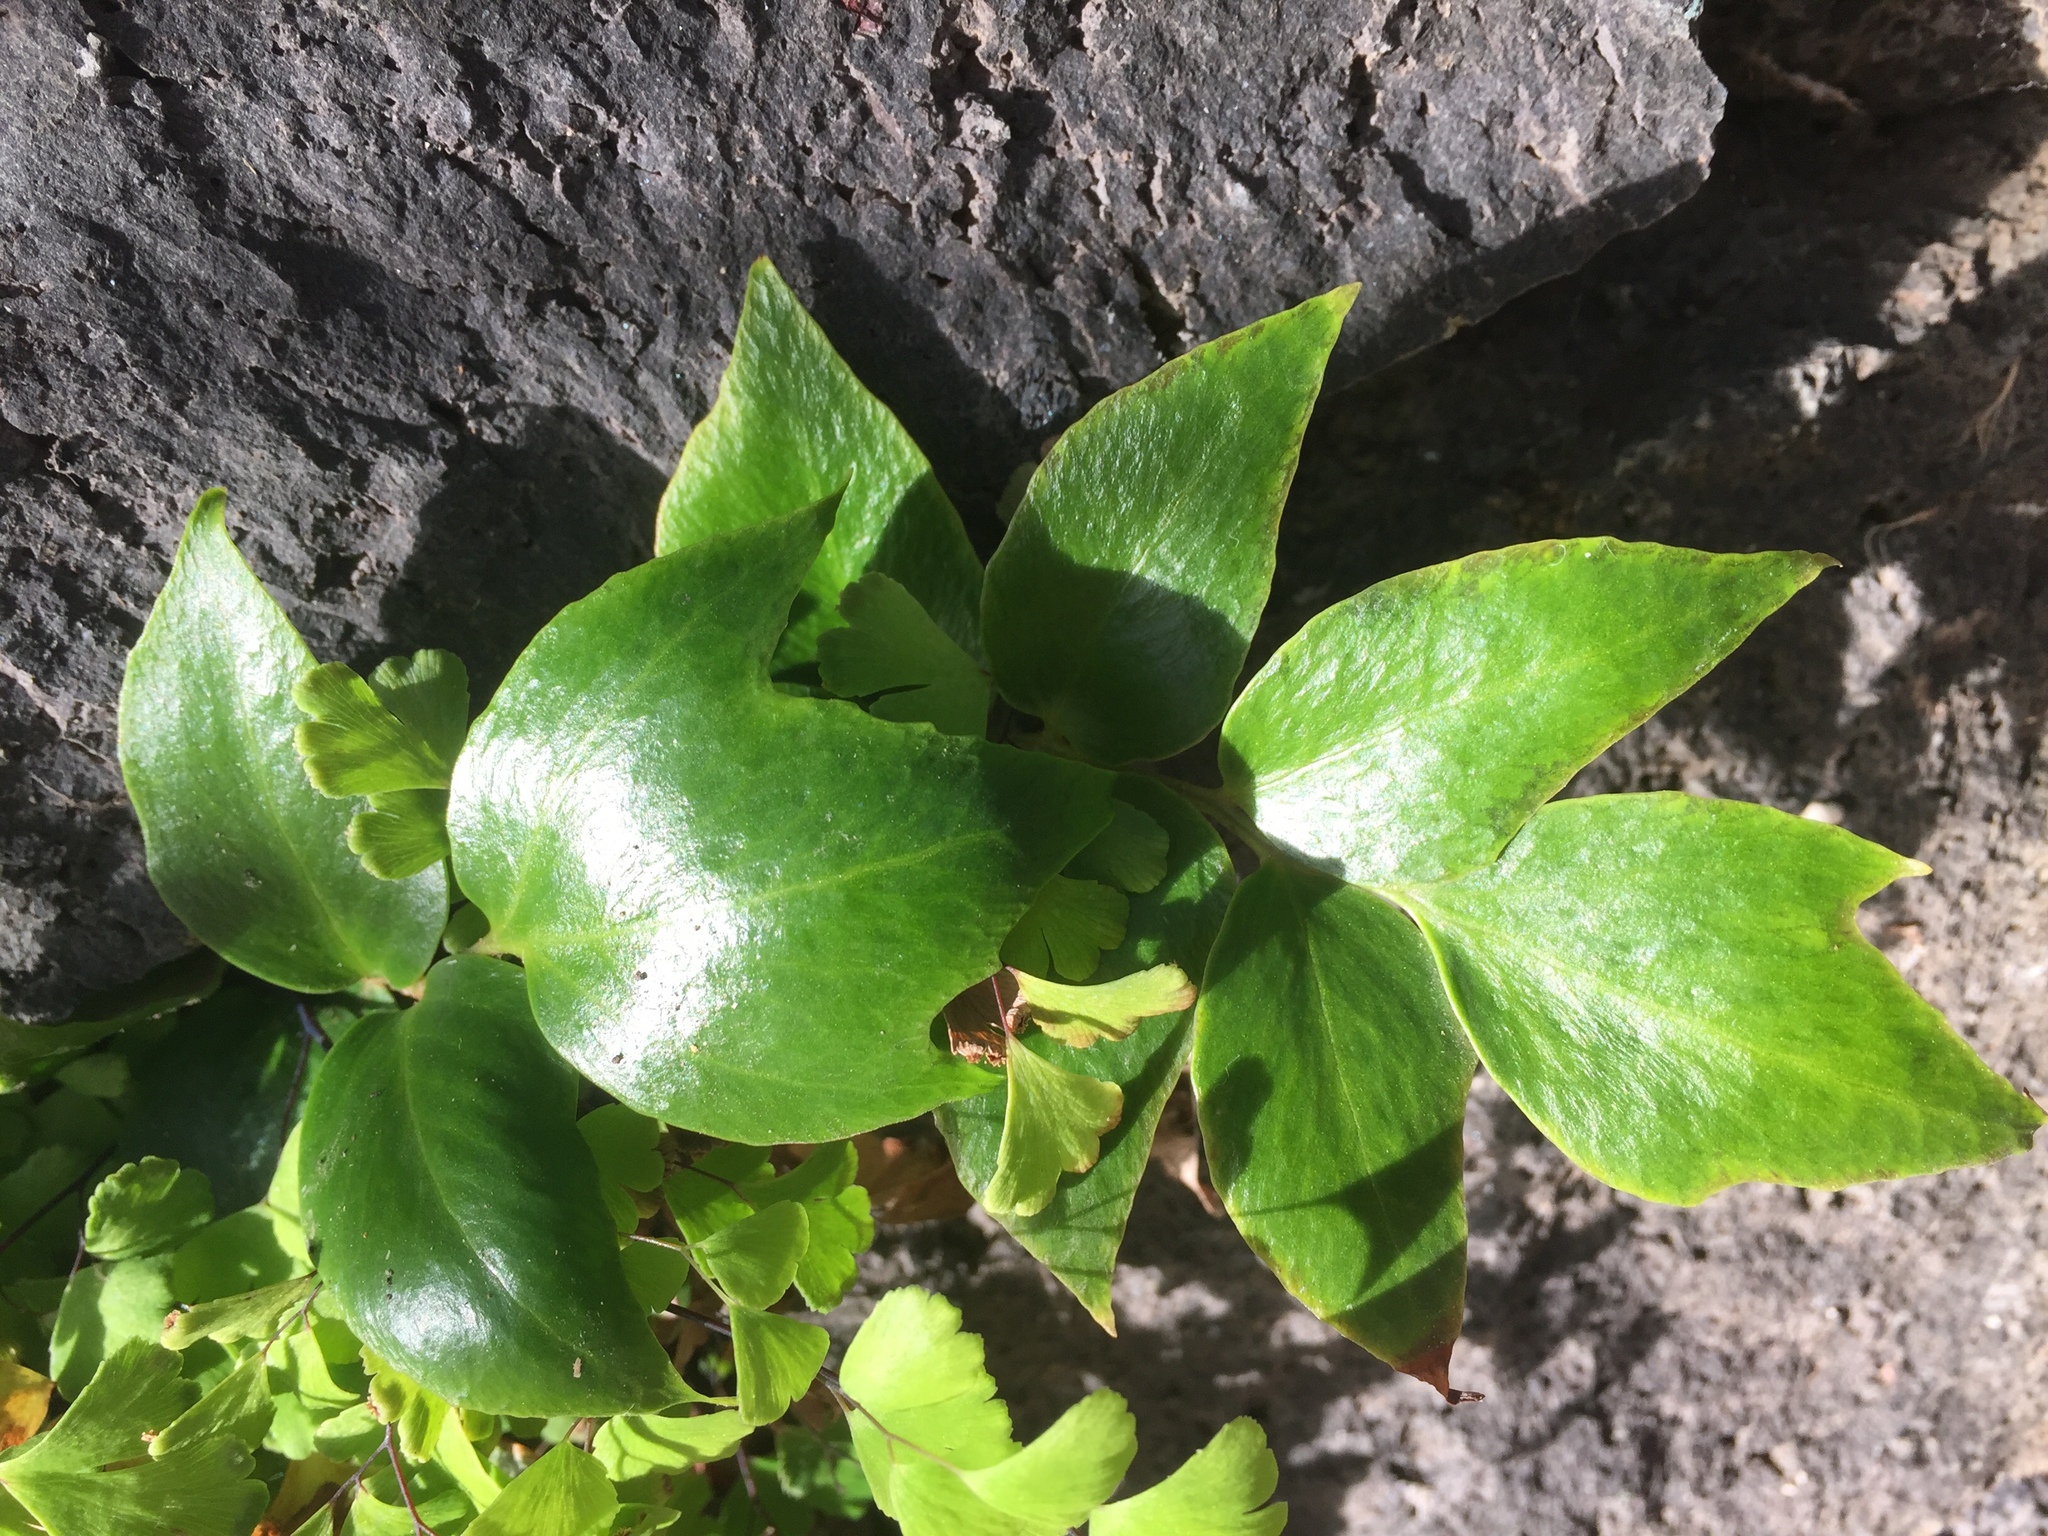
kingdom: Plantae
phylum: Tracheophyta
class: Polypodiopsida
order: Polypodiales
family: Dryopteridaceae
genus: Cyrtomium
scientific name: Cyrtomium falcatum
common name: House holly-fern
